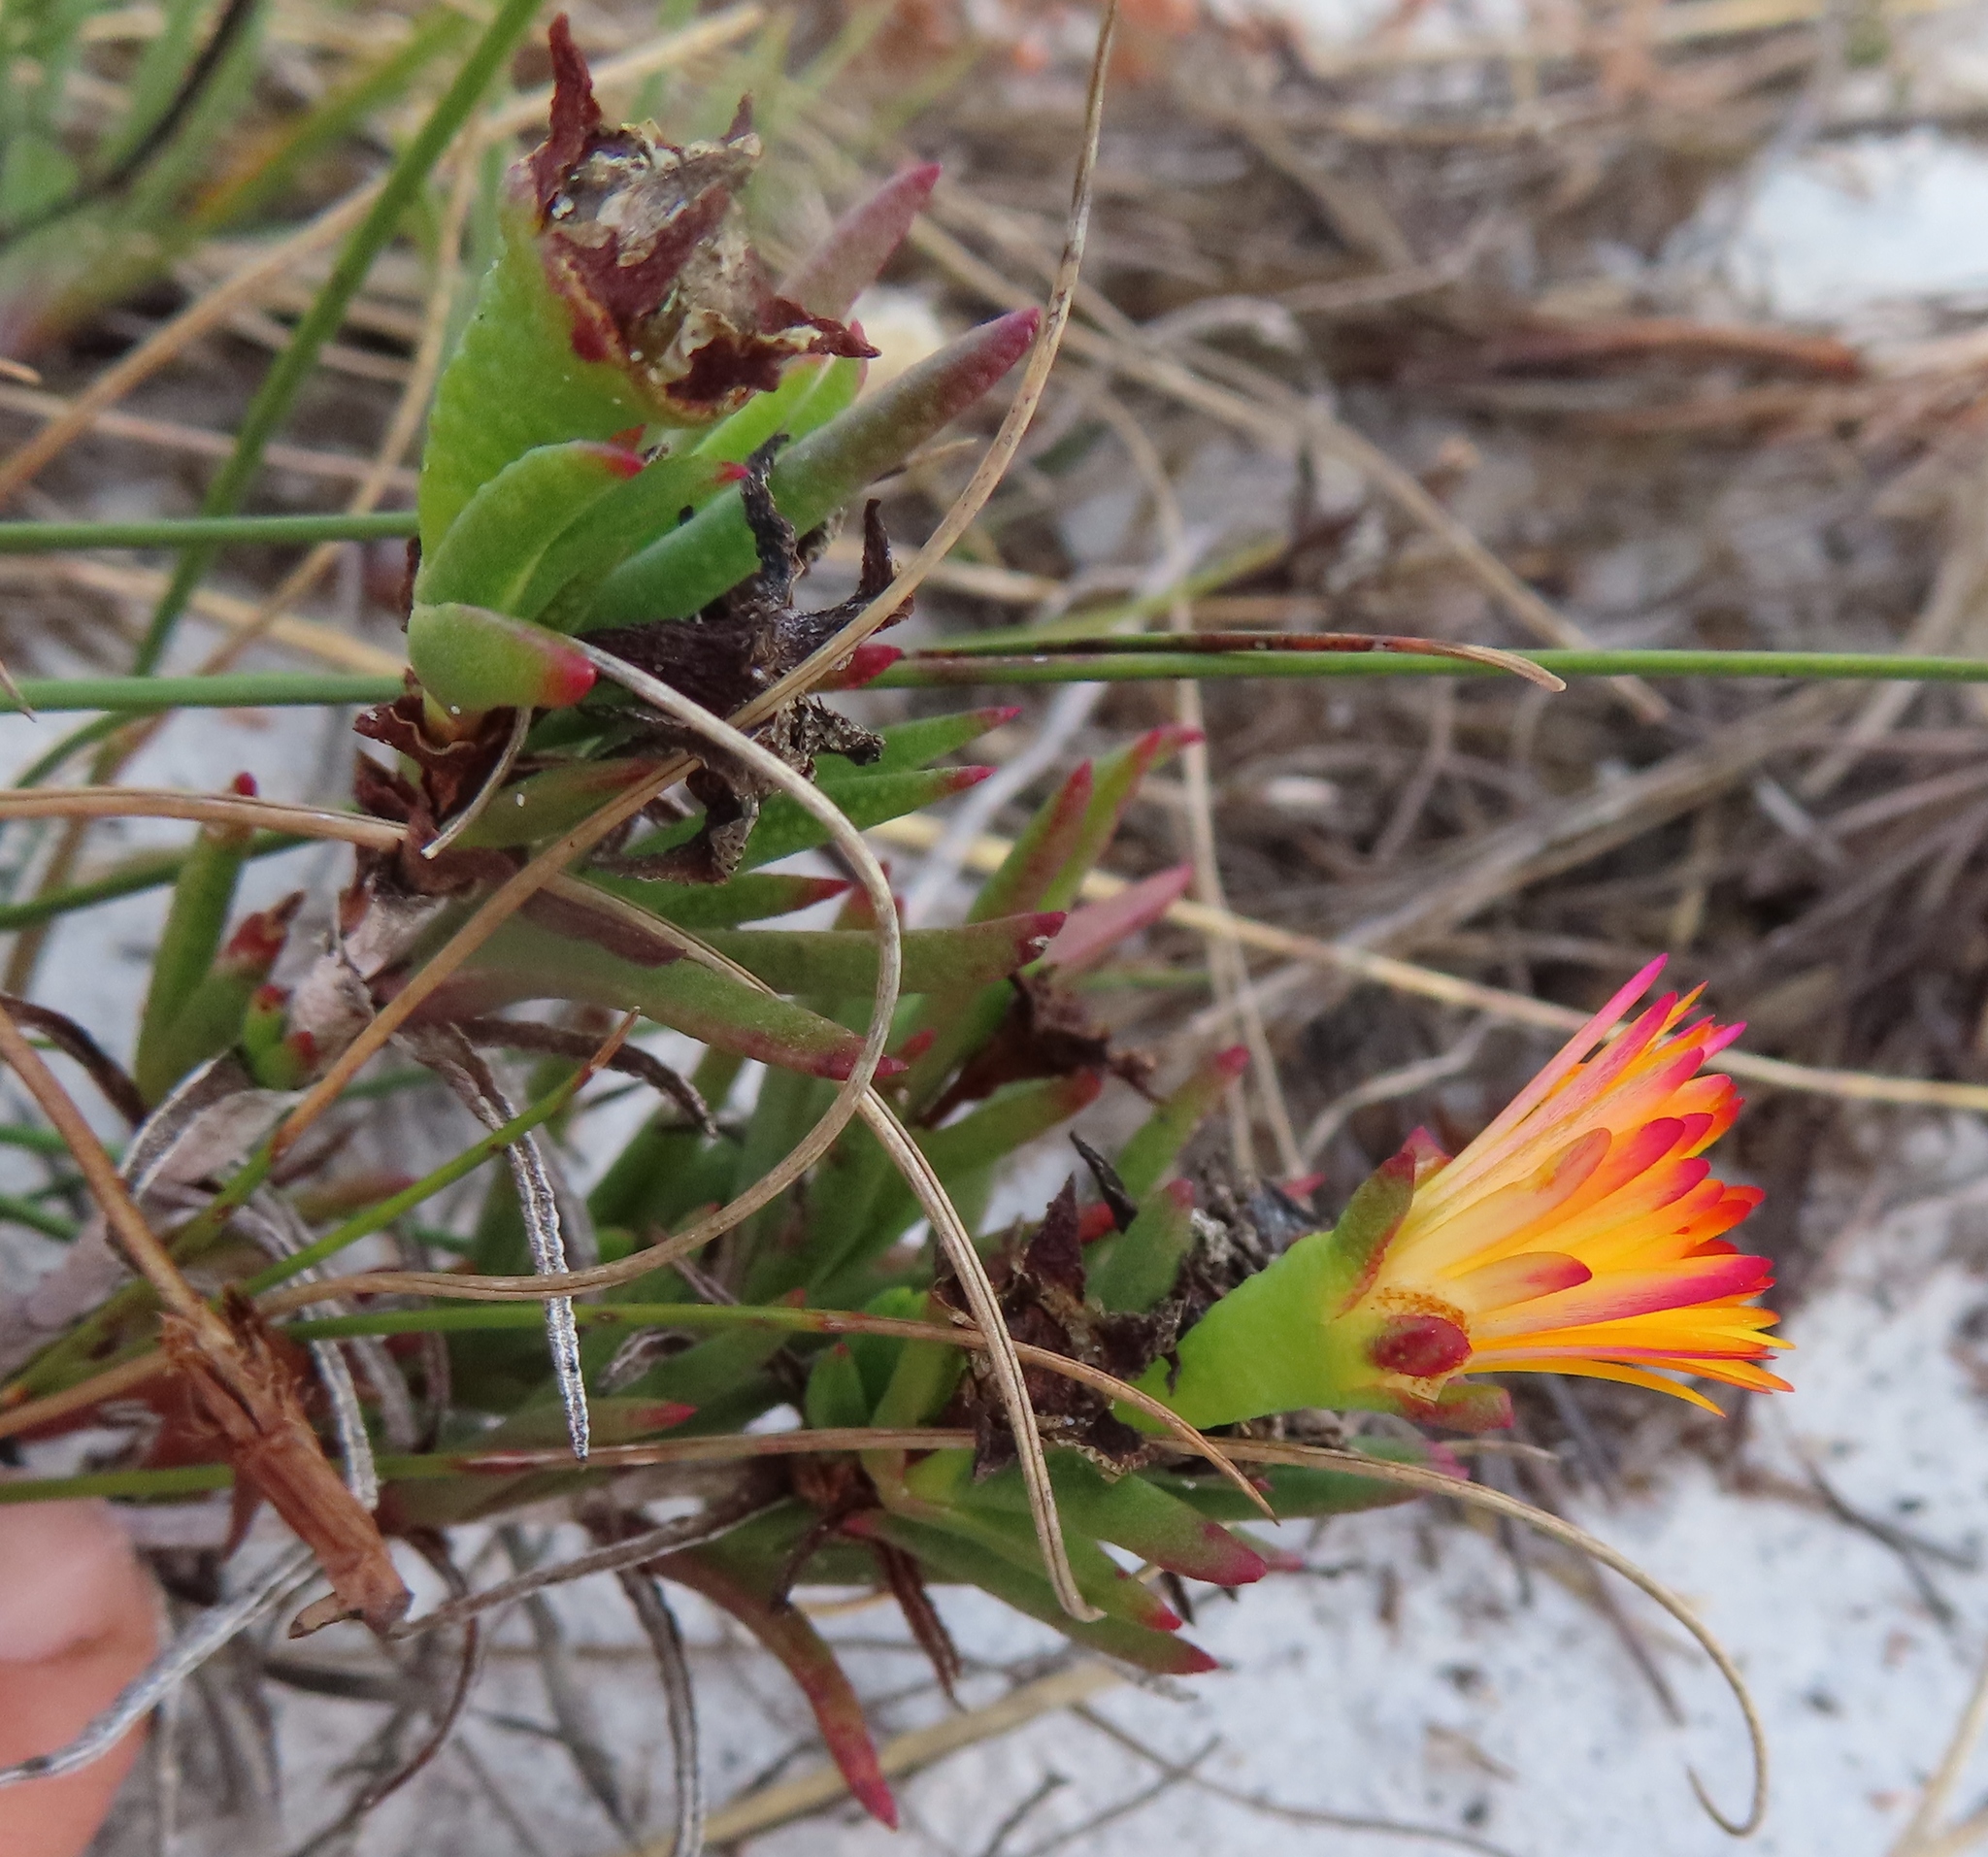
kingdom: Plantae
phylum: Tracheophyta
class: Magnoliopsida
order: Caryophyllales
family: Aizoaceae
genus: Lampranthus
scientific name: Lampranthus bicolor
